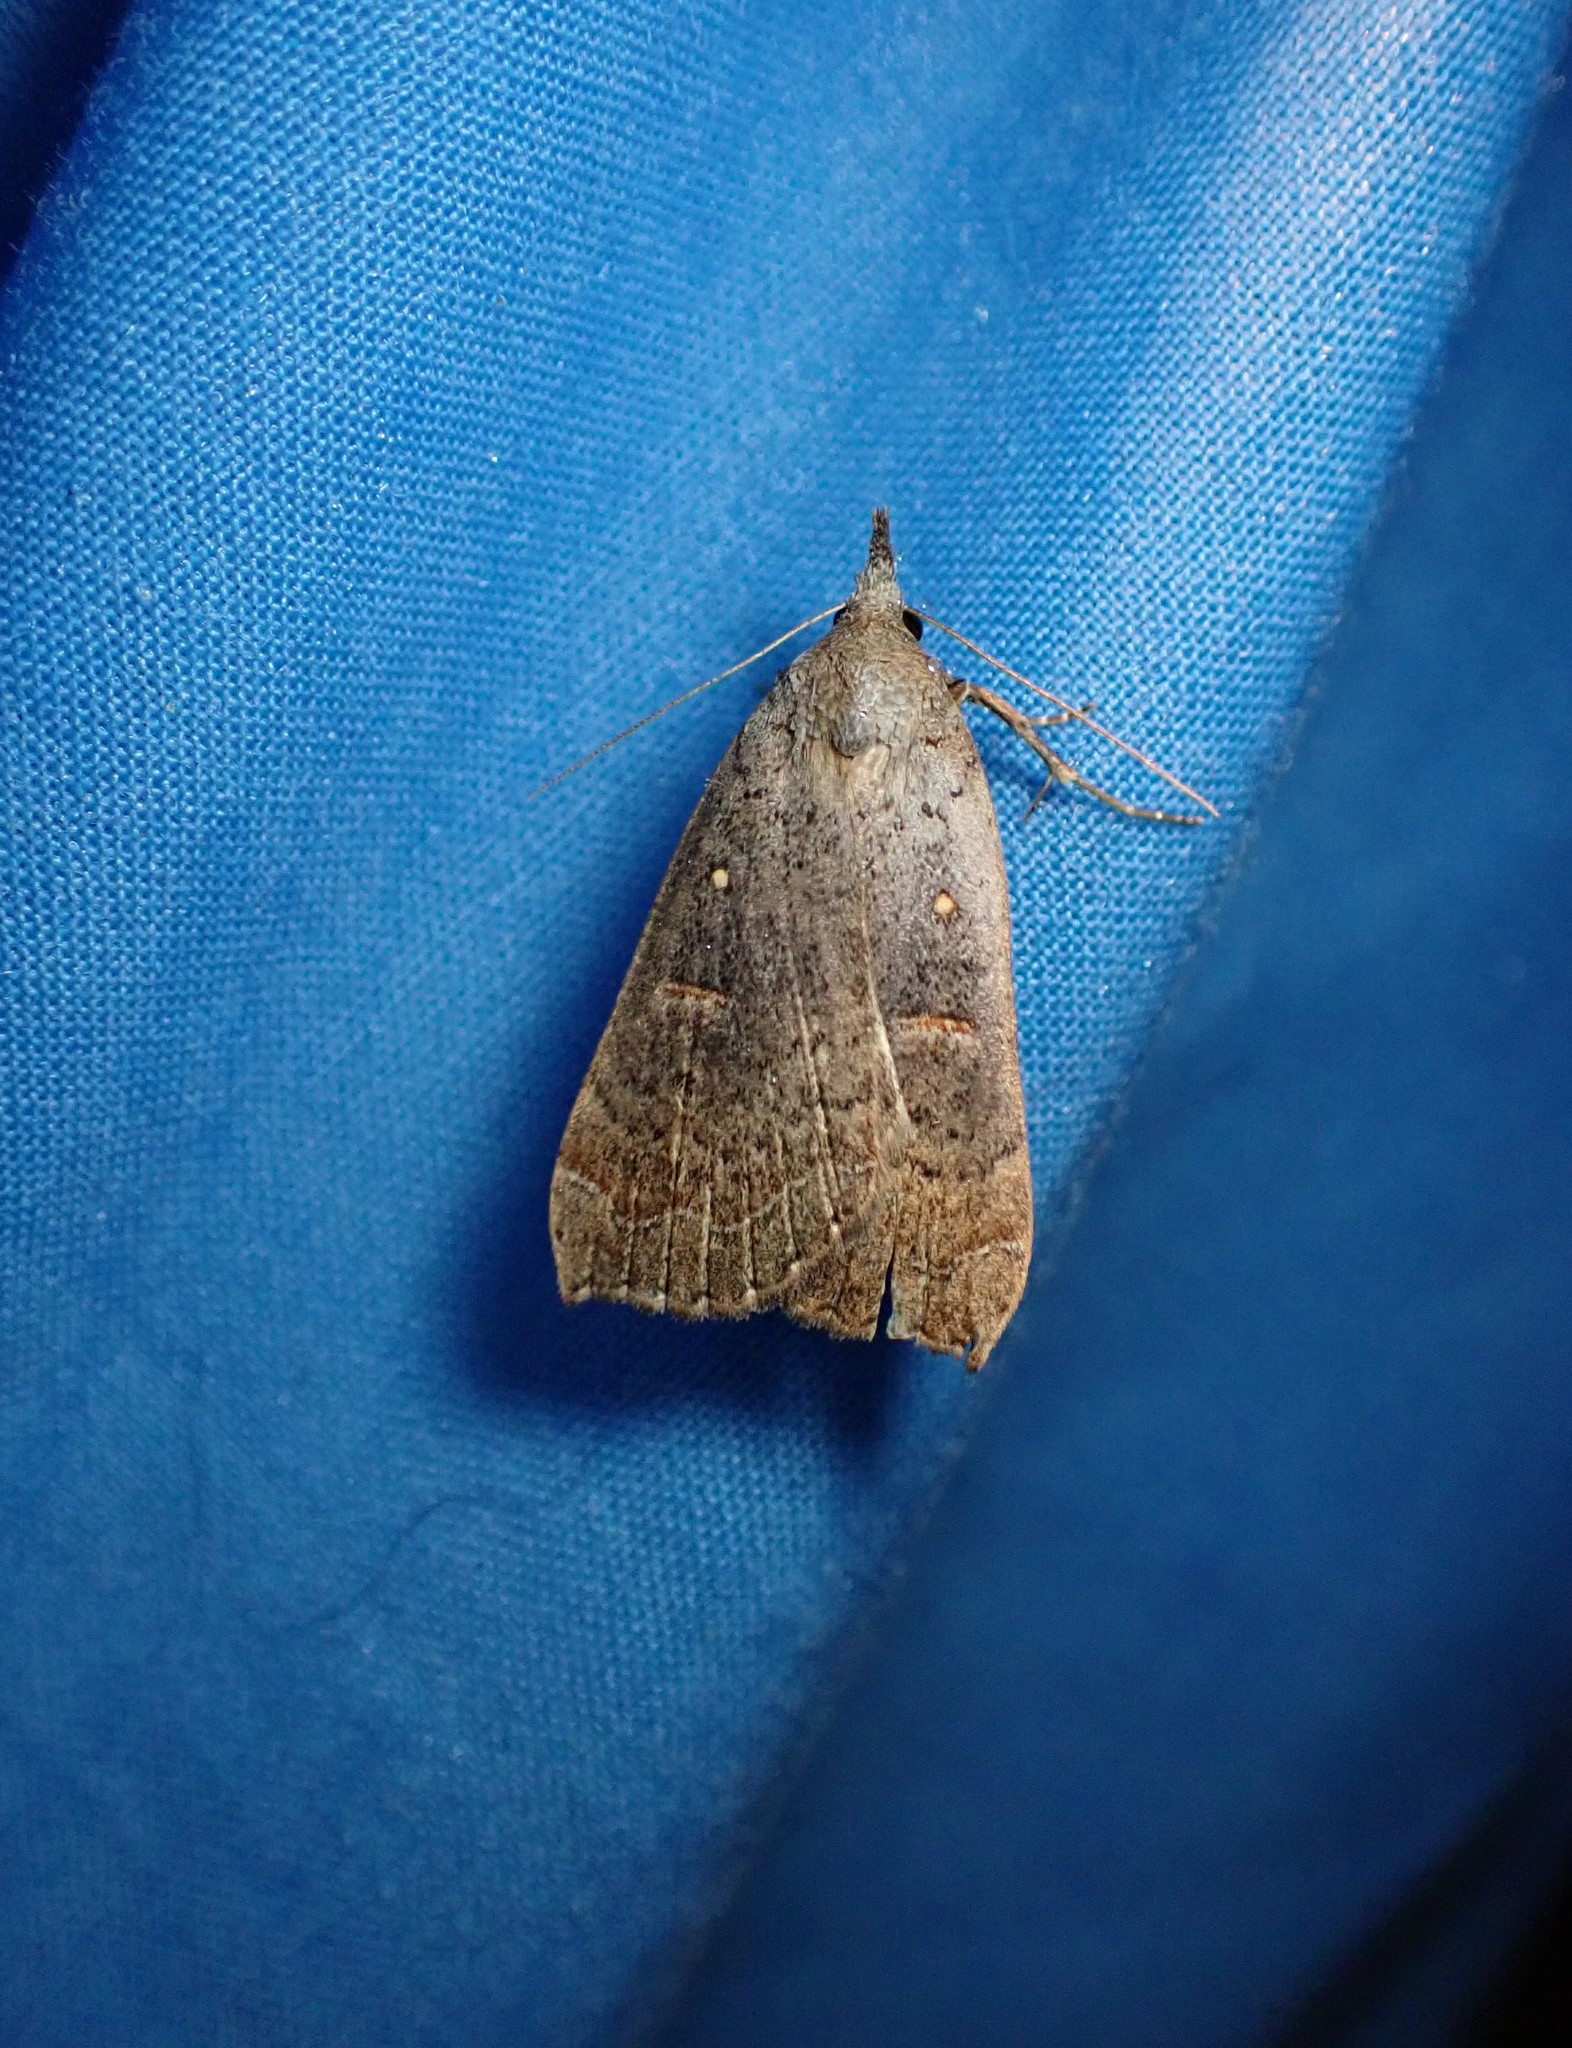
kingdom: Animalia
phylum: Arthropoda
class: Insecta
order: Lepidoptera
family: Erebidae
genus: Rhapsa
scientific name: Rhapsa scotosialis
